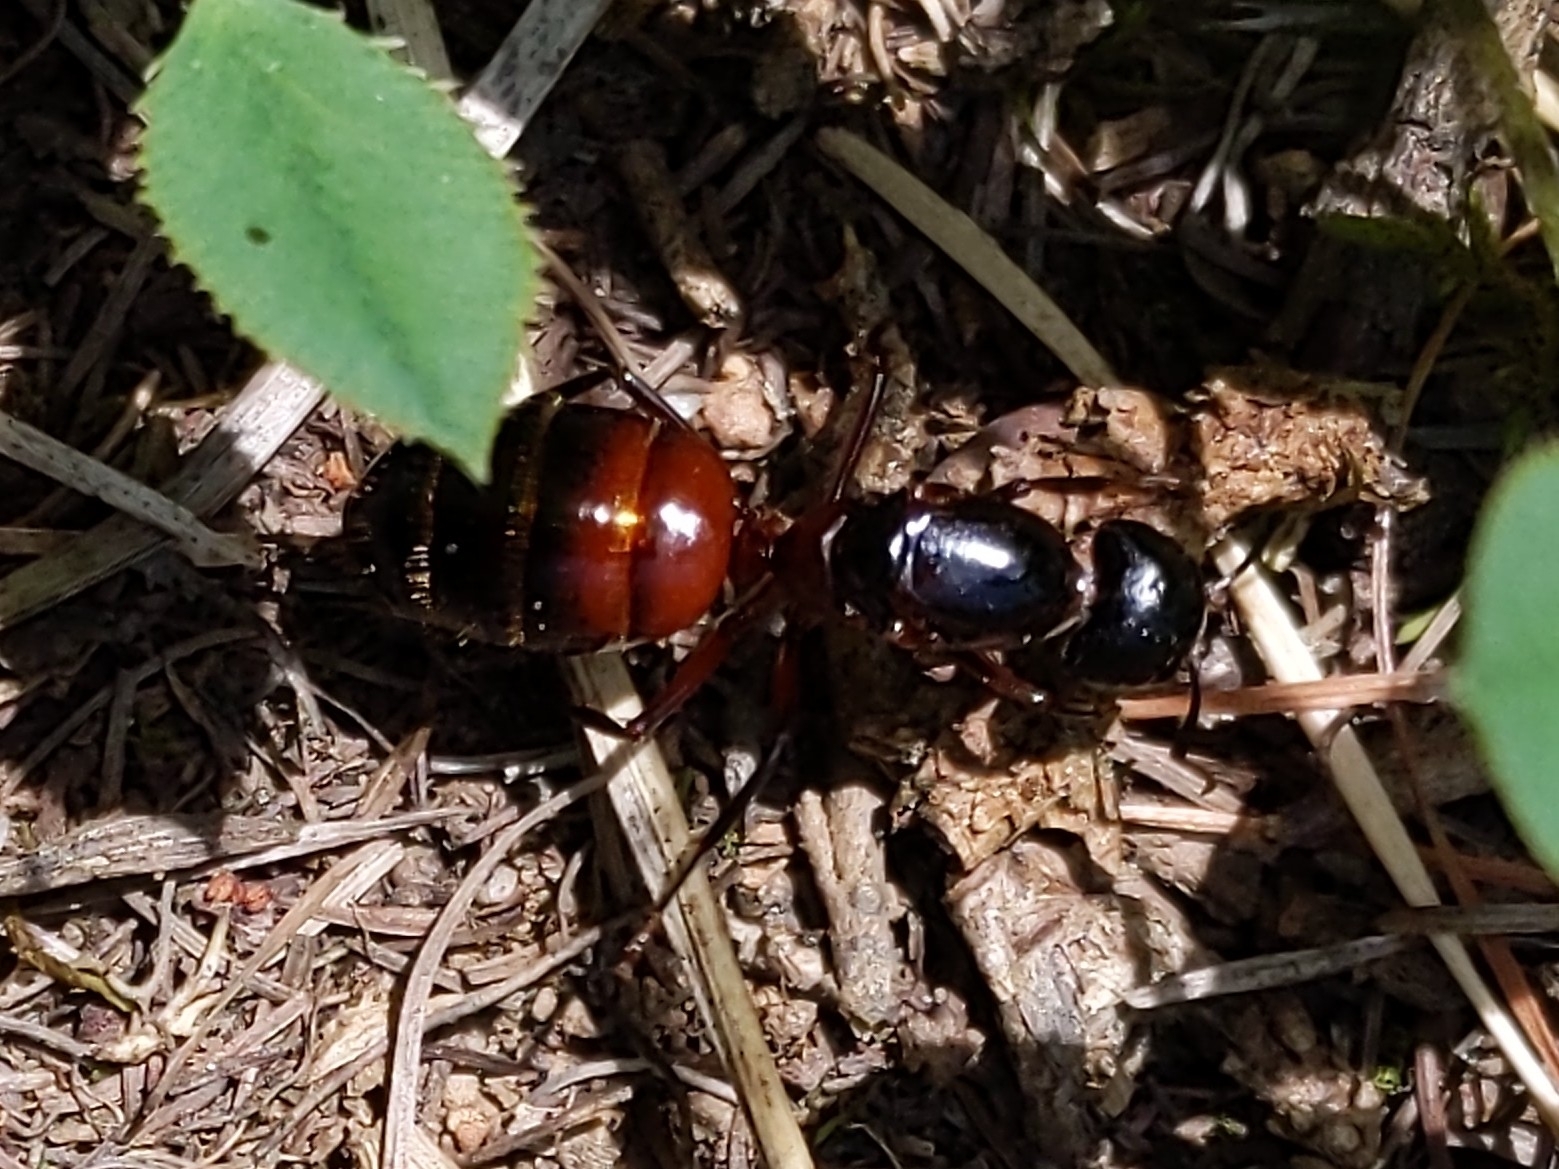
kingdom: Animalia
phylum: Arthropoda
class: Insecta
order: Hymenoptera
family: Formicidae
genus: Camponotus
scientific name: Camponotus ligniperdus
